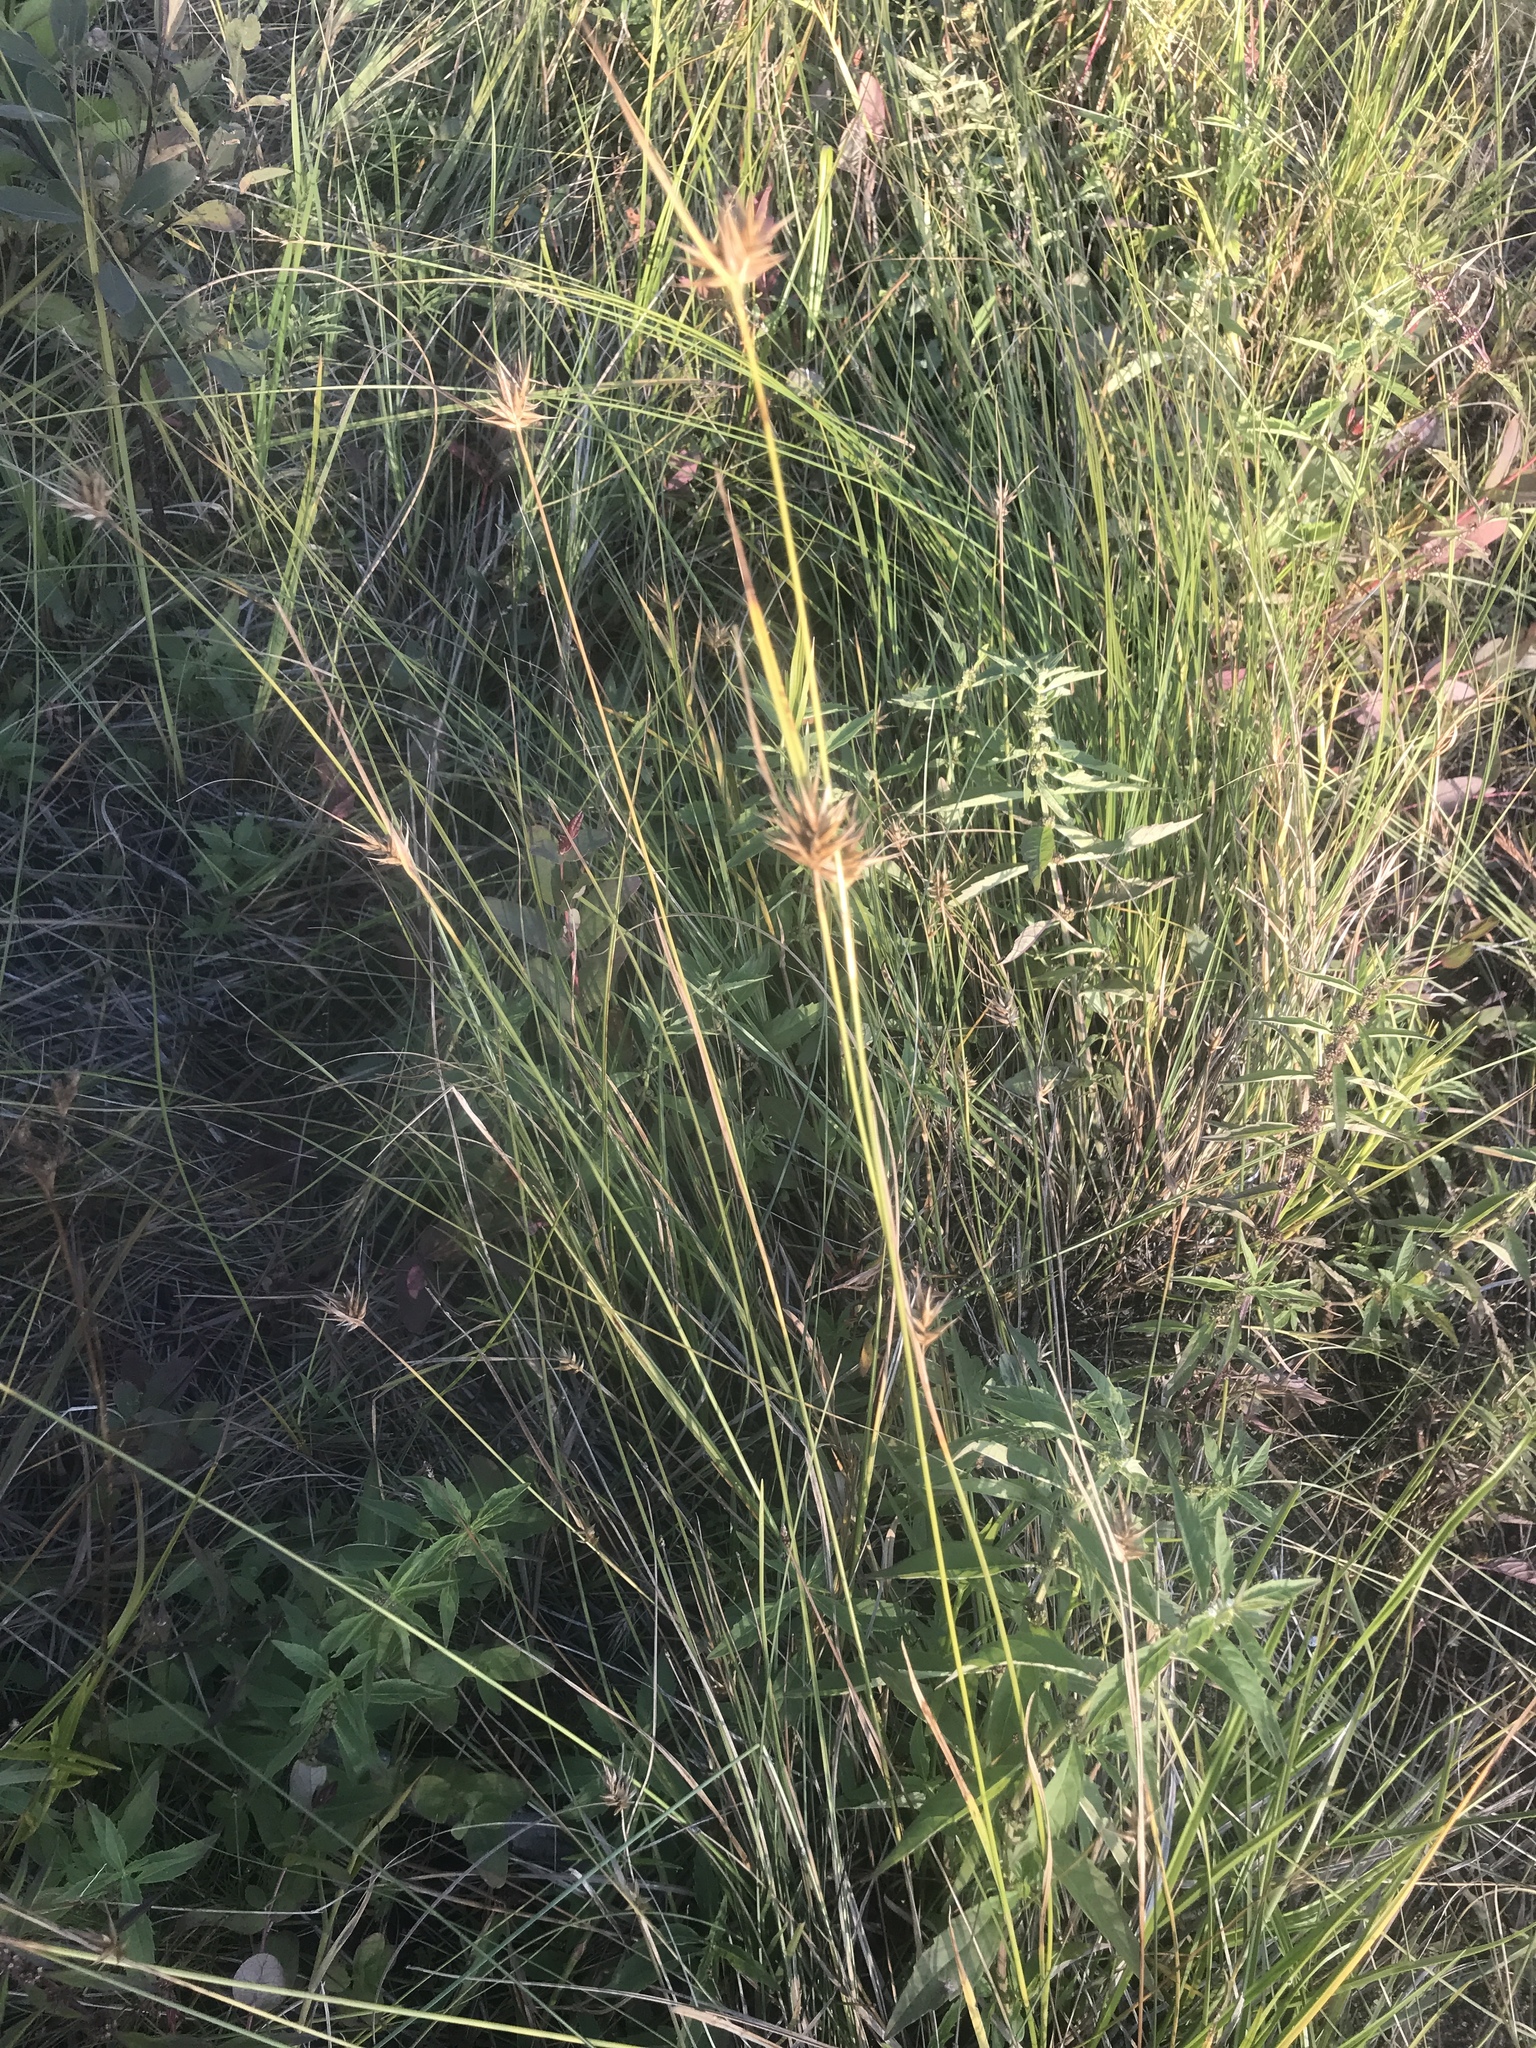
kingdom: Plantae
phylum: Tracheophyta
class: Liliopsida
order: Poales
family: Cyperaceae
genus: Carex
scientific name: Carex michauxiana
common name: Michaux's sedge
